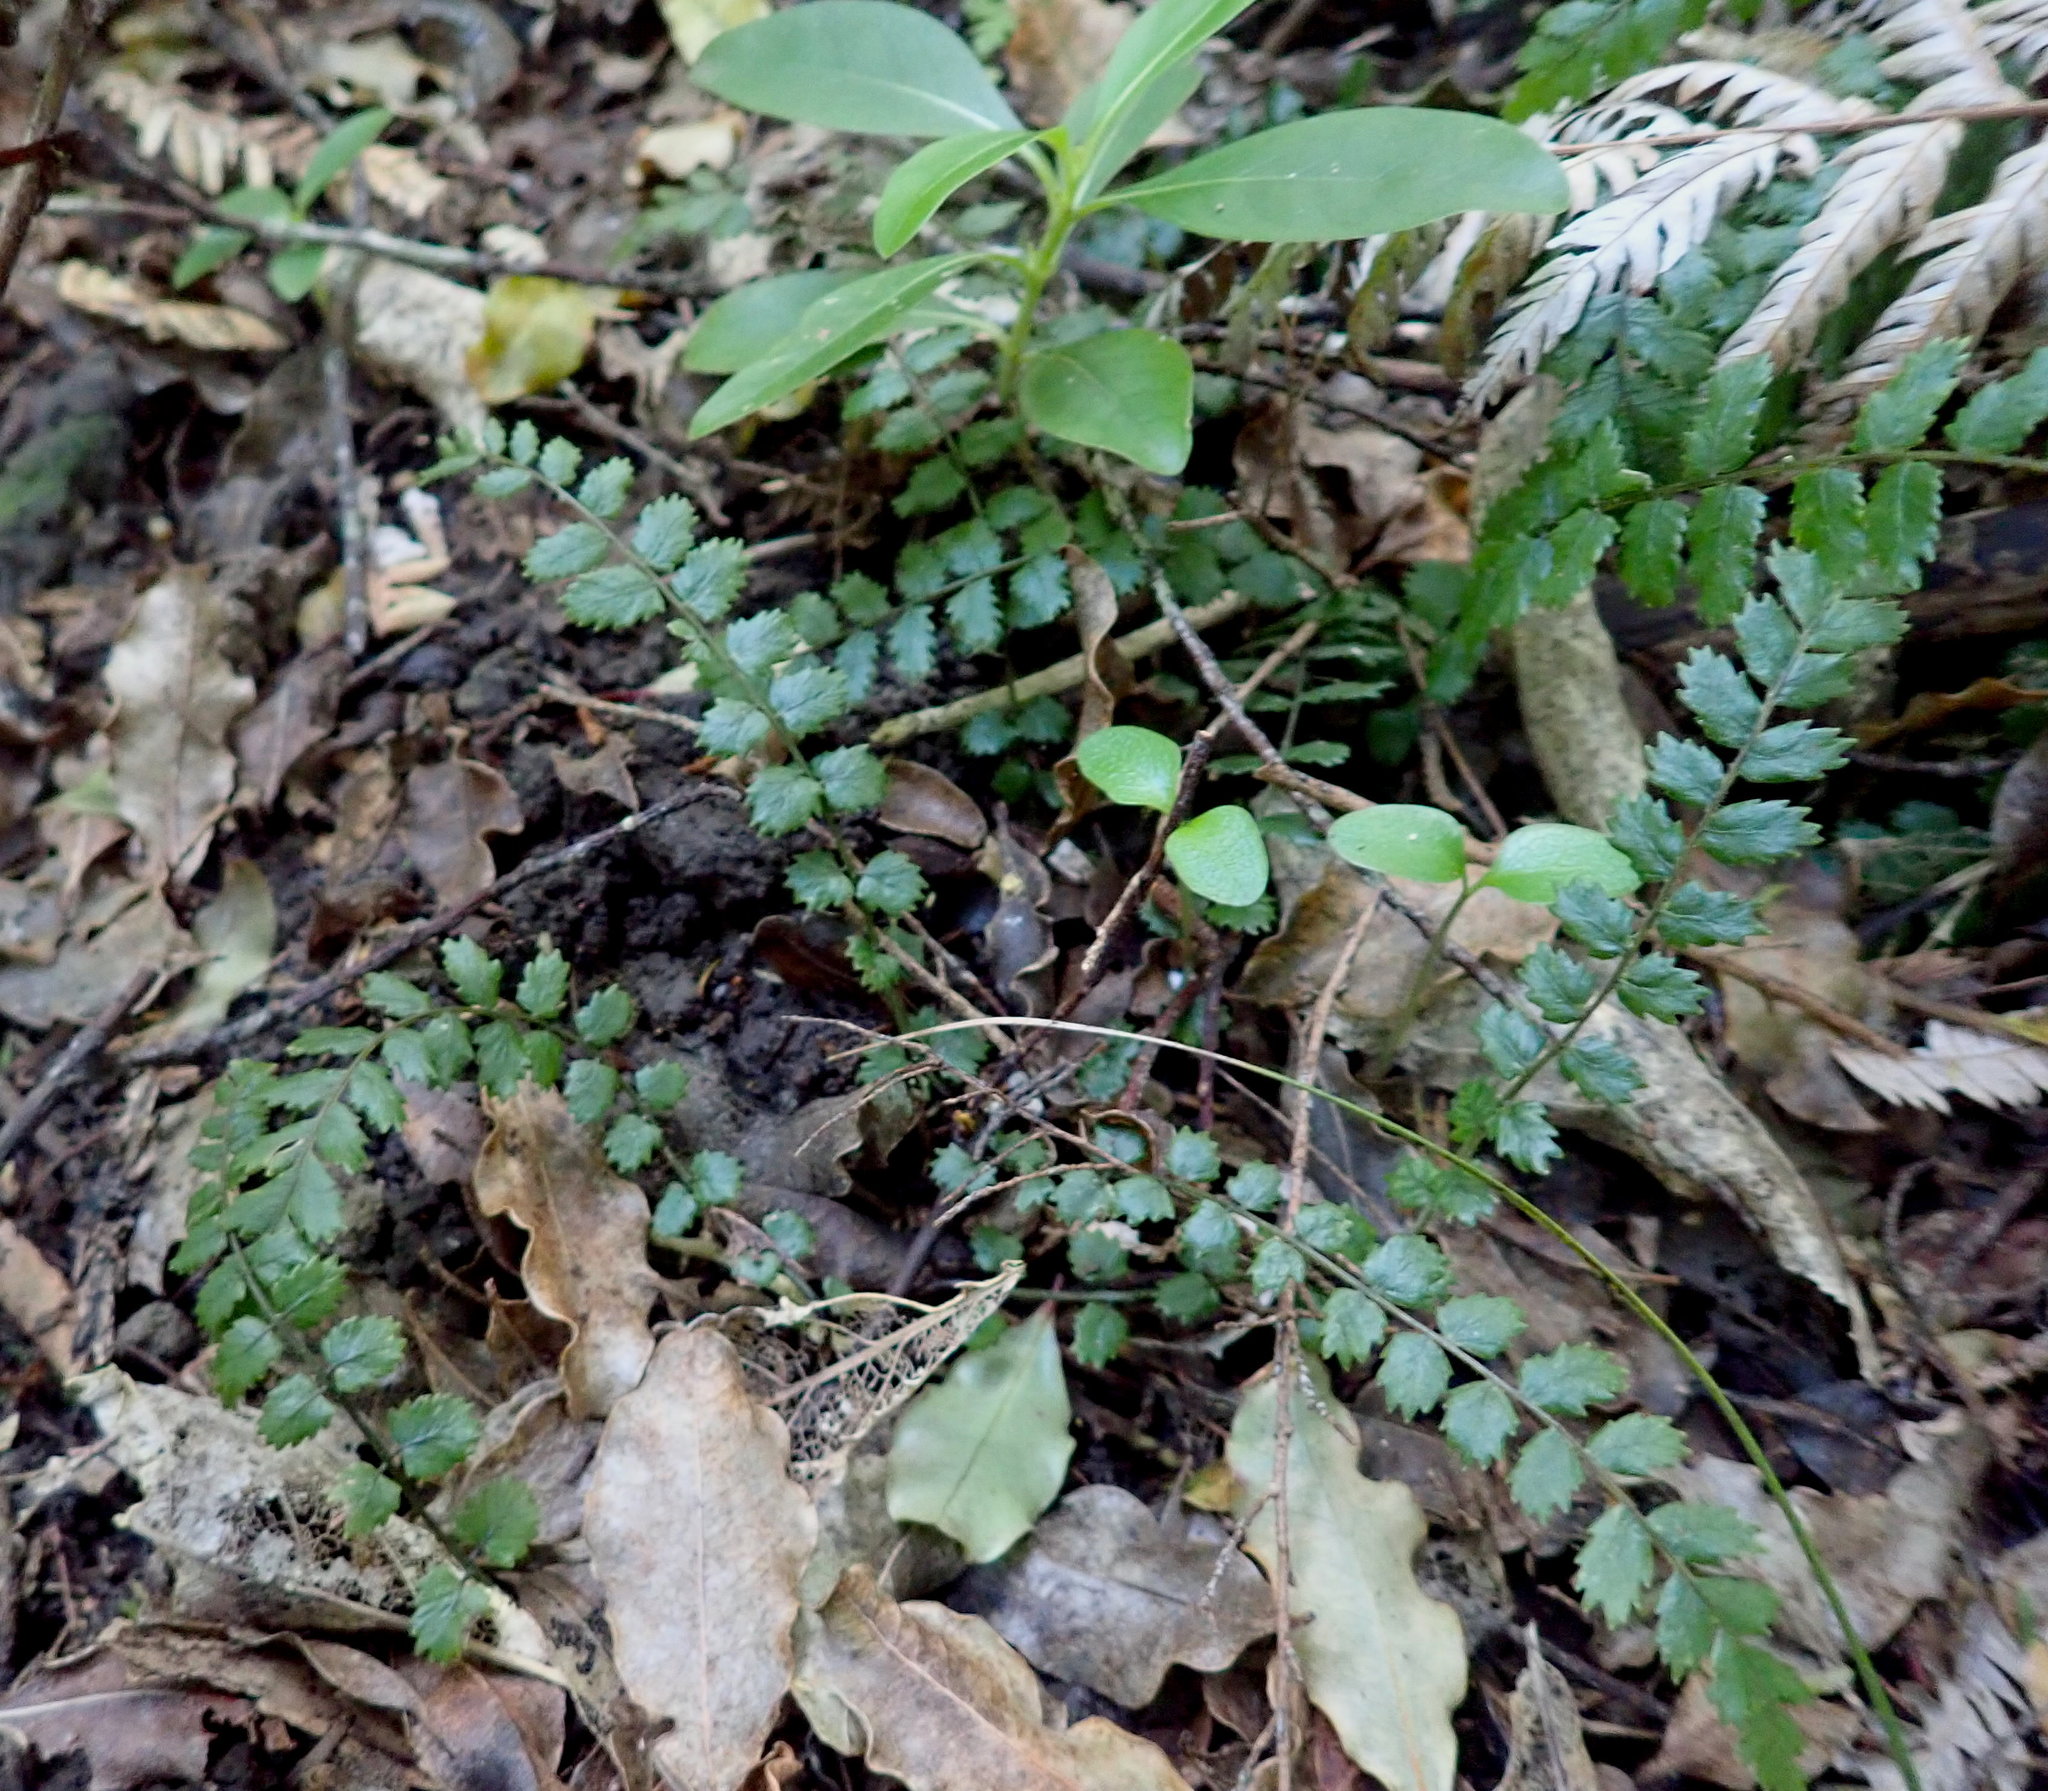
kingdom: Plantae
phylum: Tracheophyta
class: Polypodiopsida
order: Polypodiales
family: Blechnaceae
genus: Icarus
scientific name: Icarus filiformis
